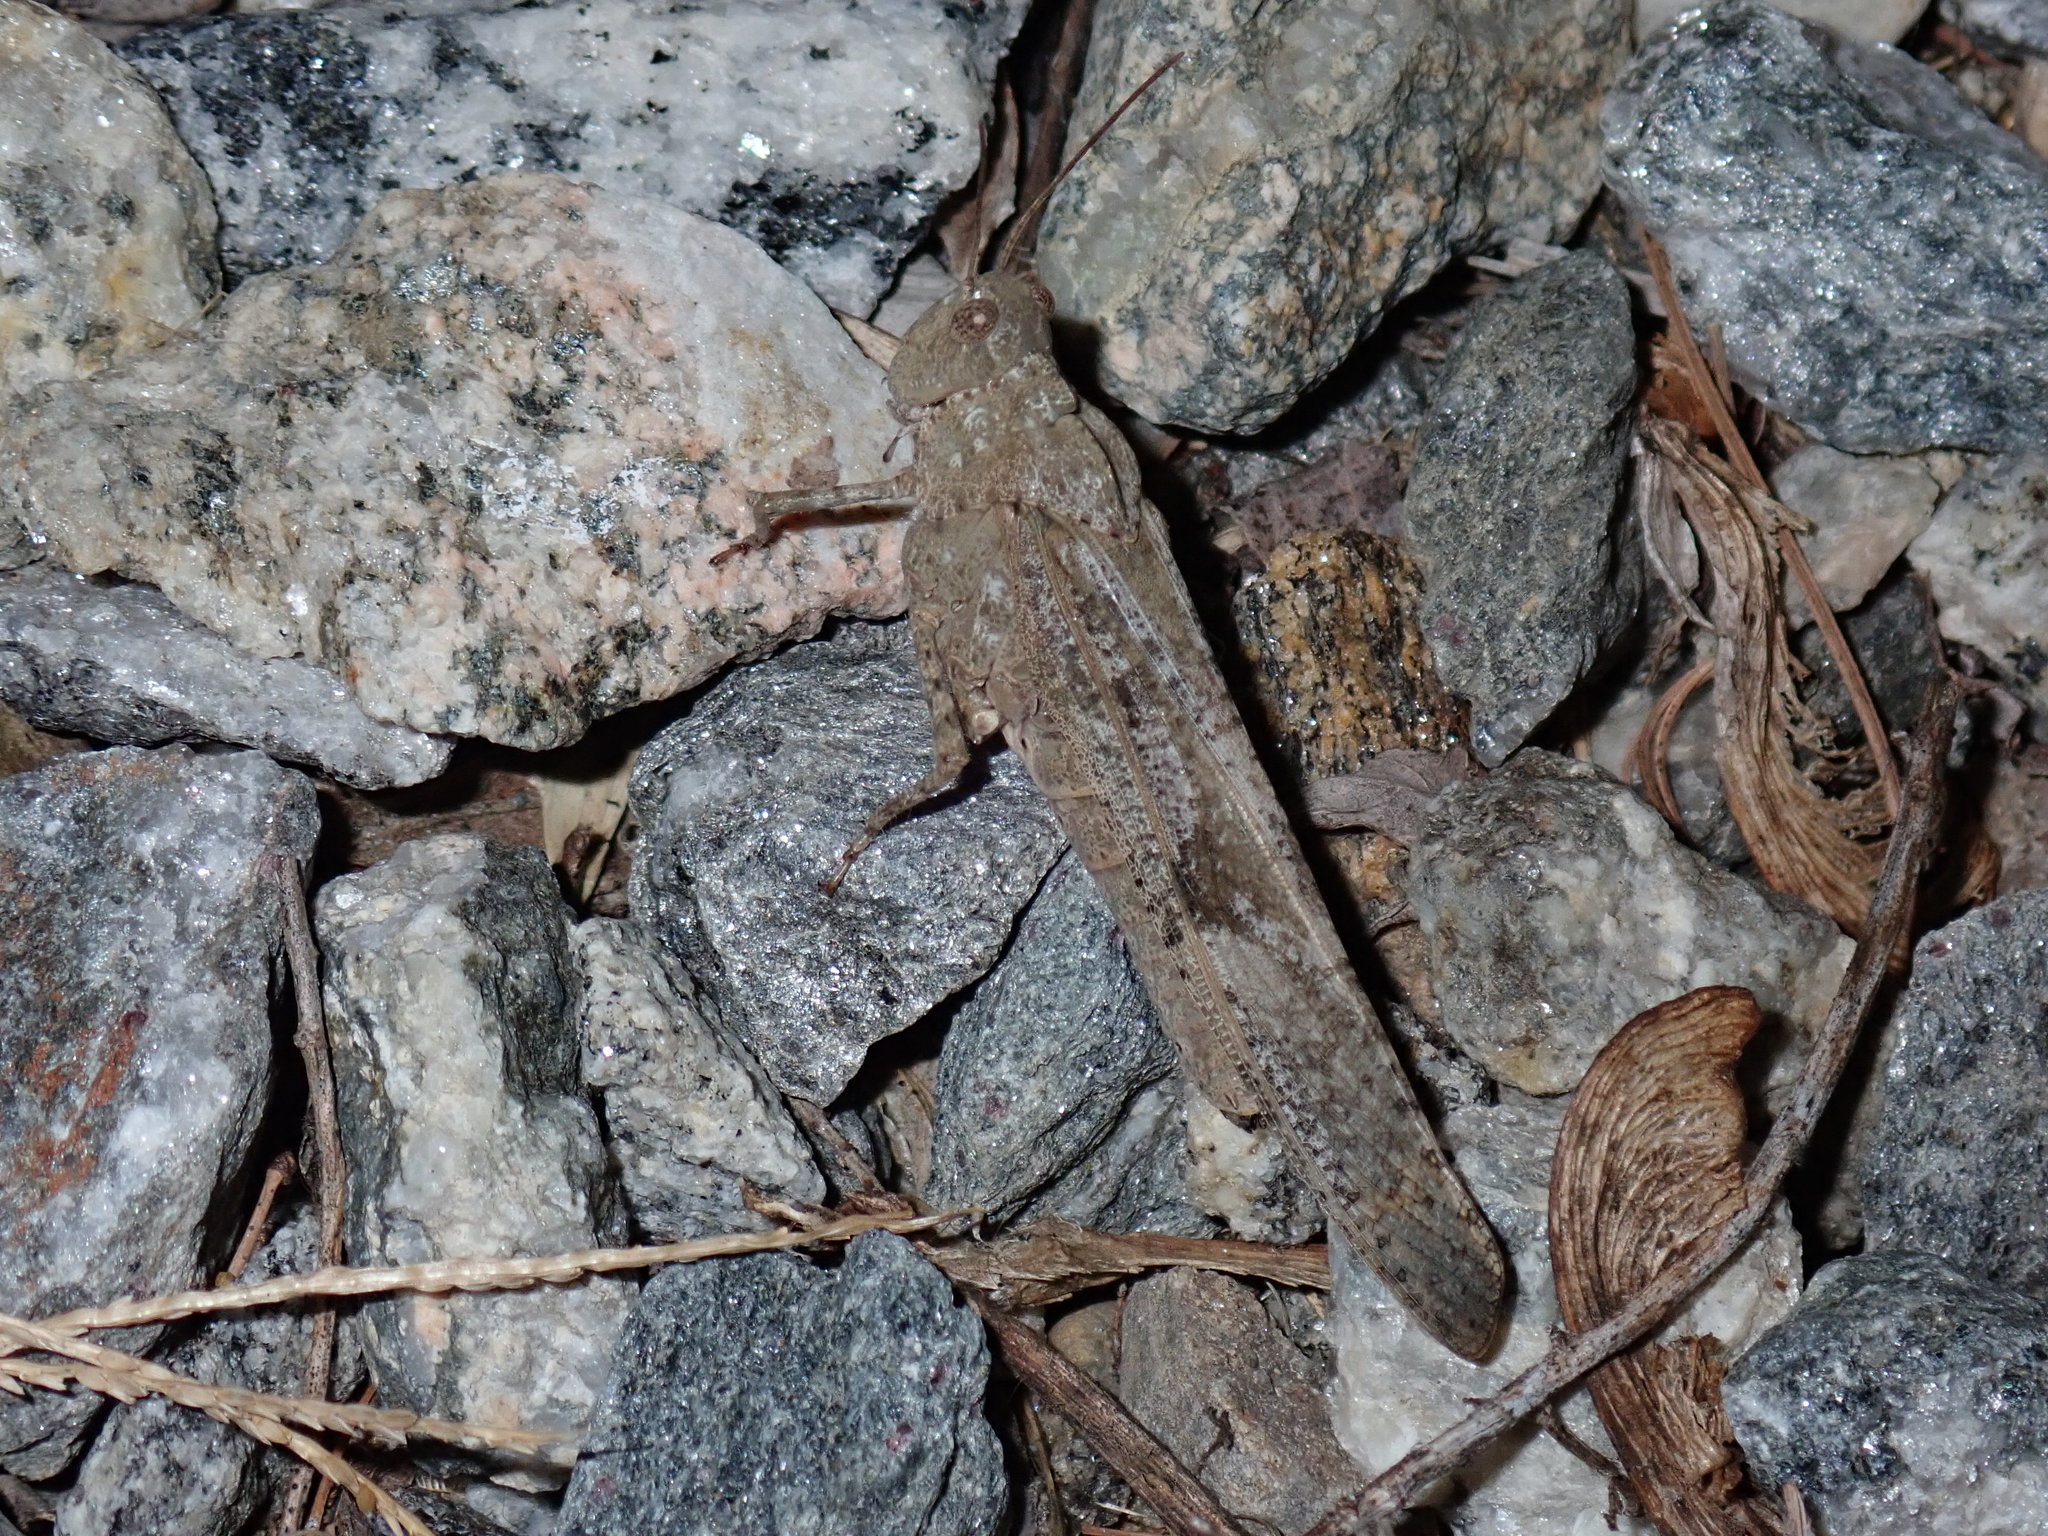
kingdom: Animalia
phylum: Arthropoda
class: Insecta
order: Orthoptera
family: Acrididae
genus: Dissosteira
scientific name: Dissosteira carolina
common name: Carolina grasshopper
